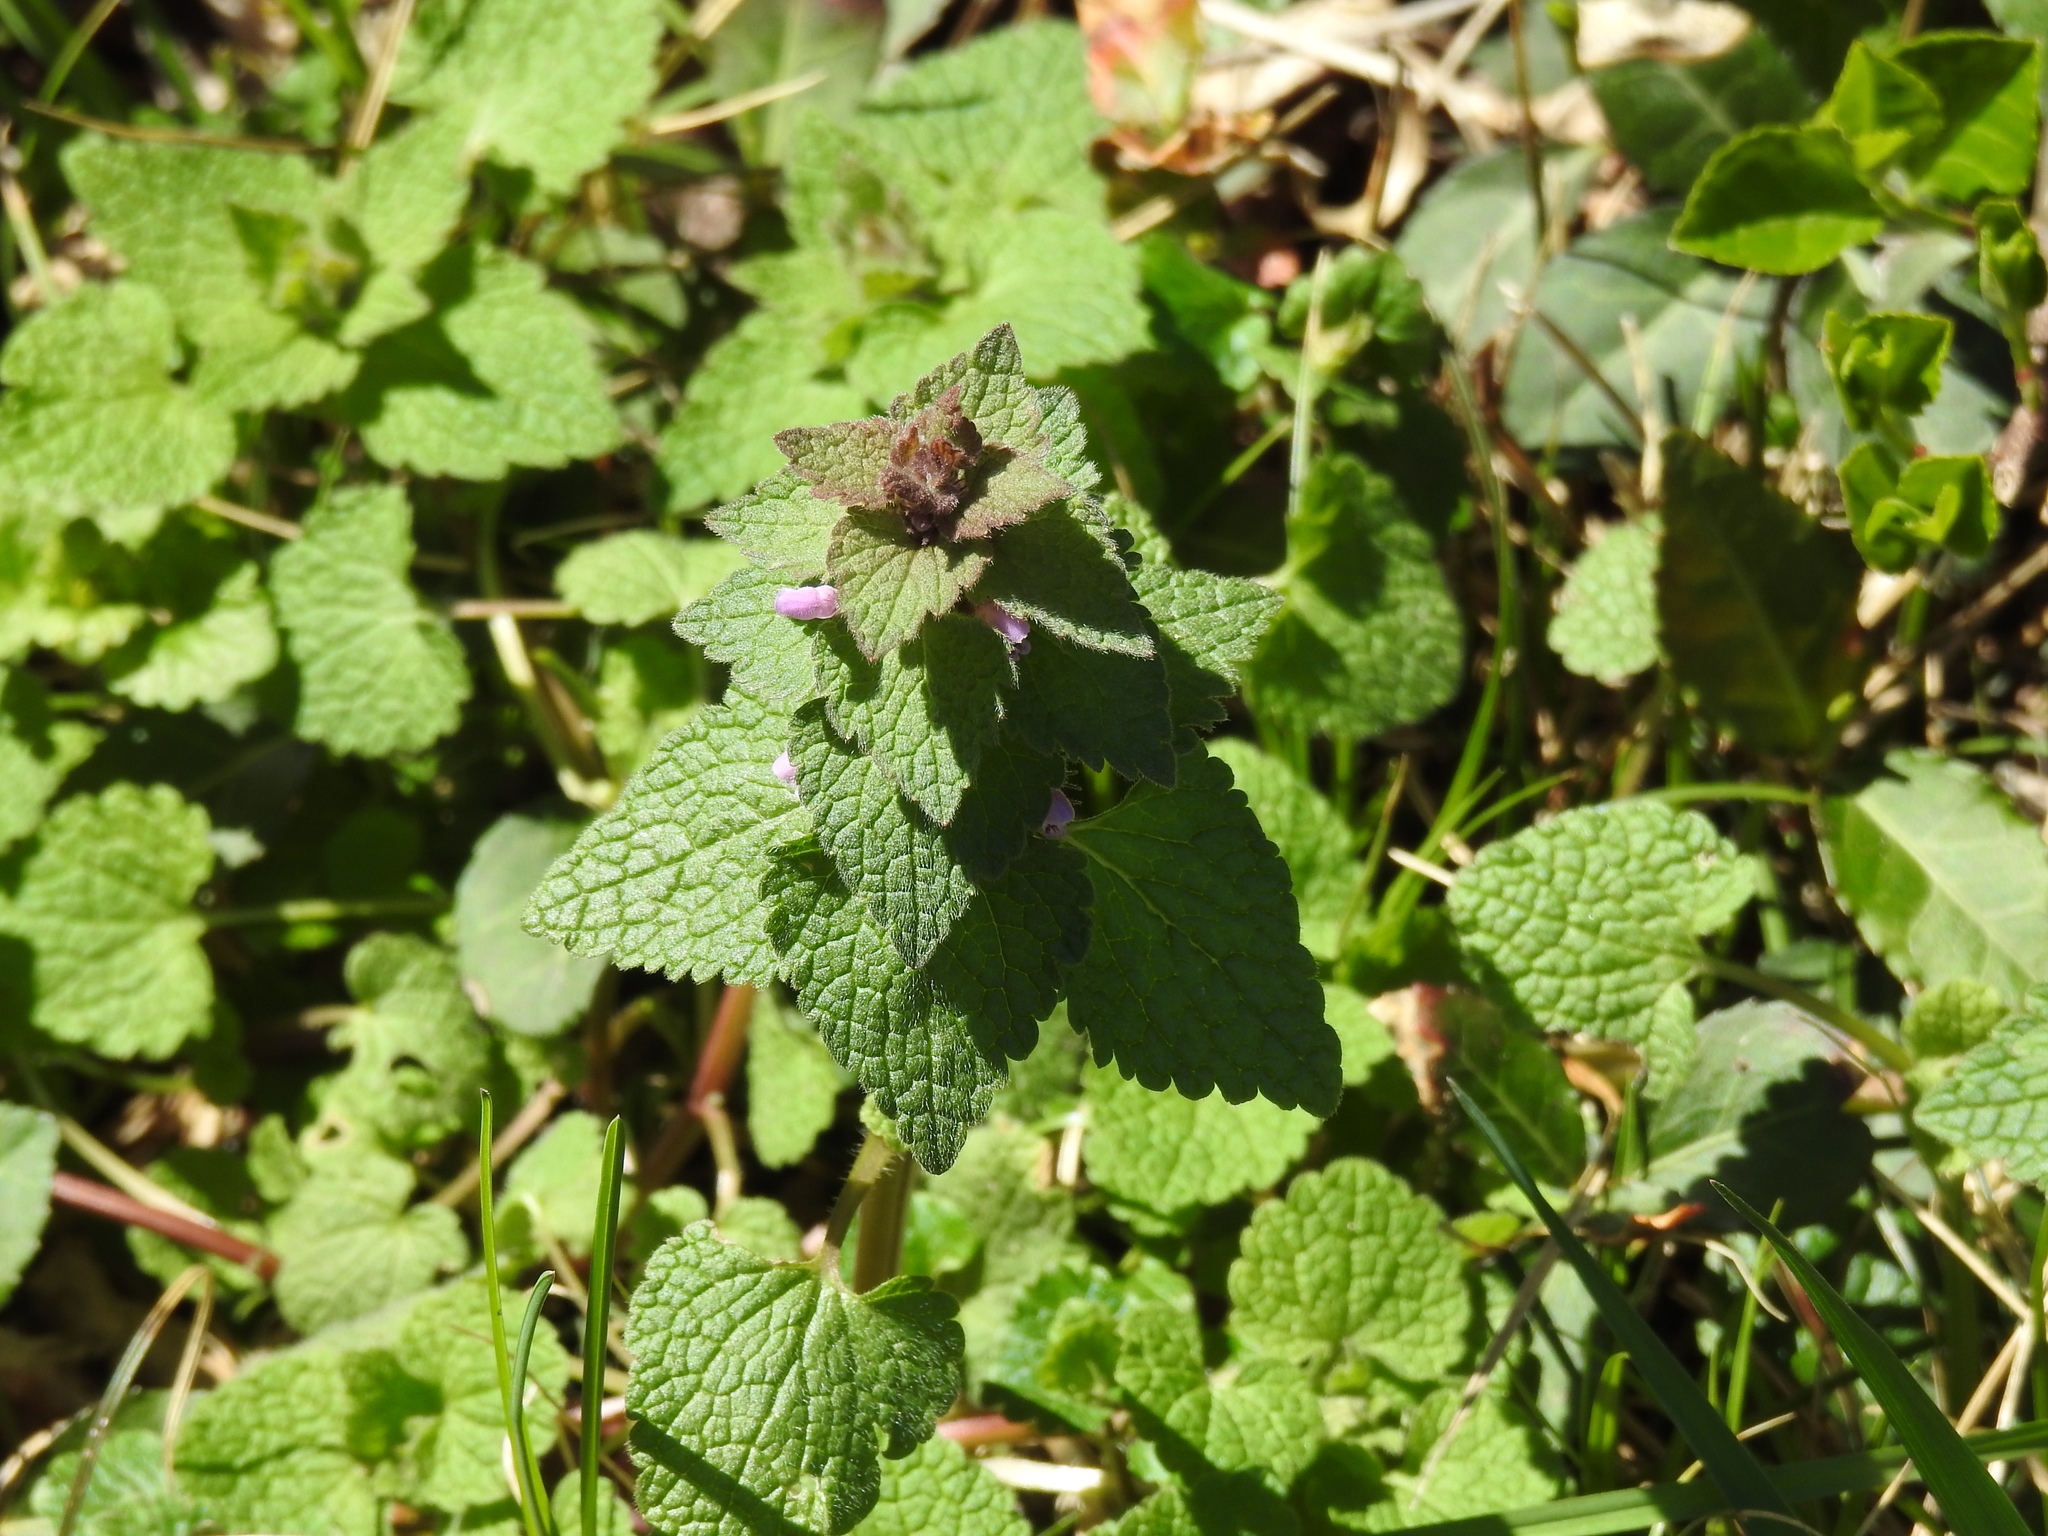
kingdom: Plantae
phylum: Tracheophyta
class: Magnoliopsida
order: Lamiales
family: Lamiaceae
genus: Lamium
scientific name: Lamium purpureum
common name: Red dead-nettle
